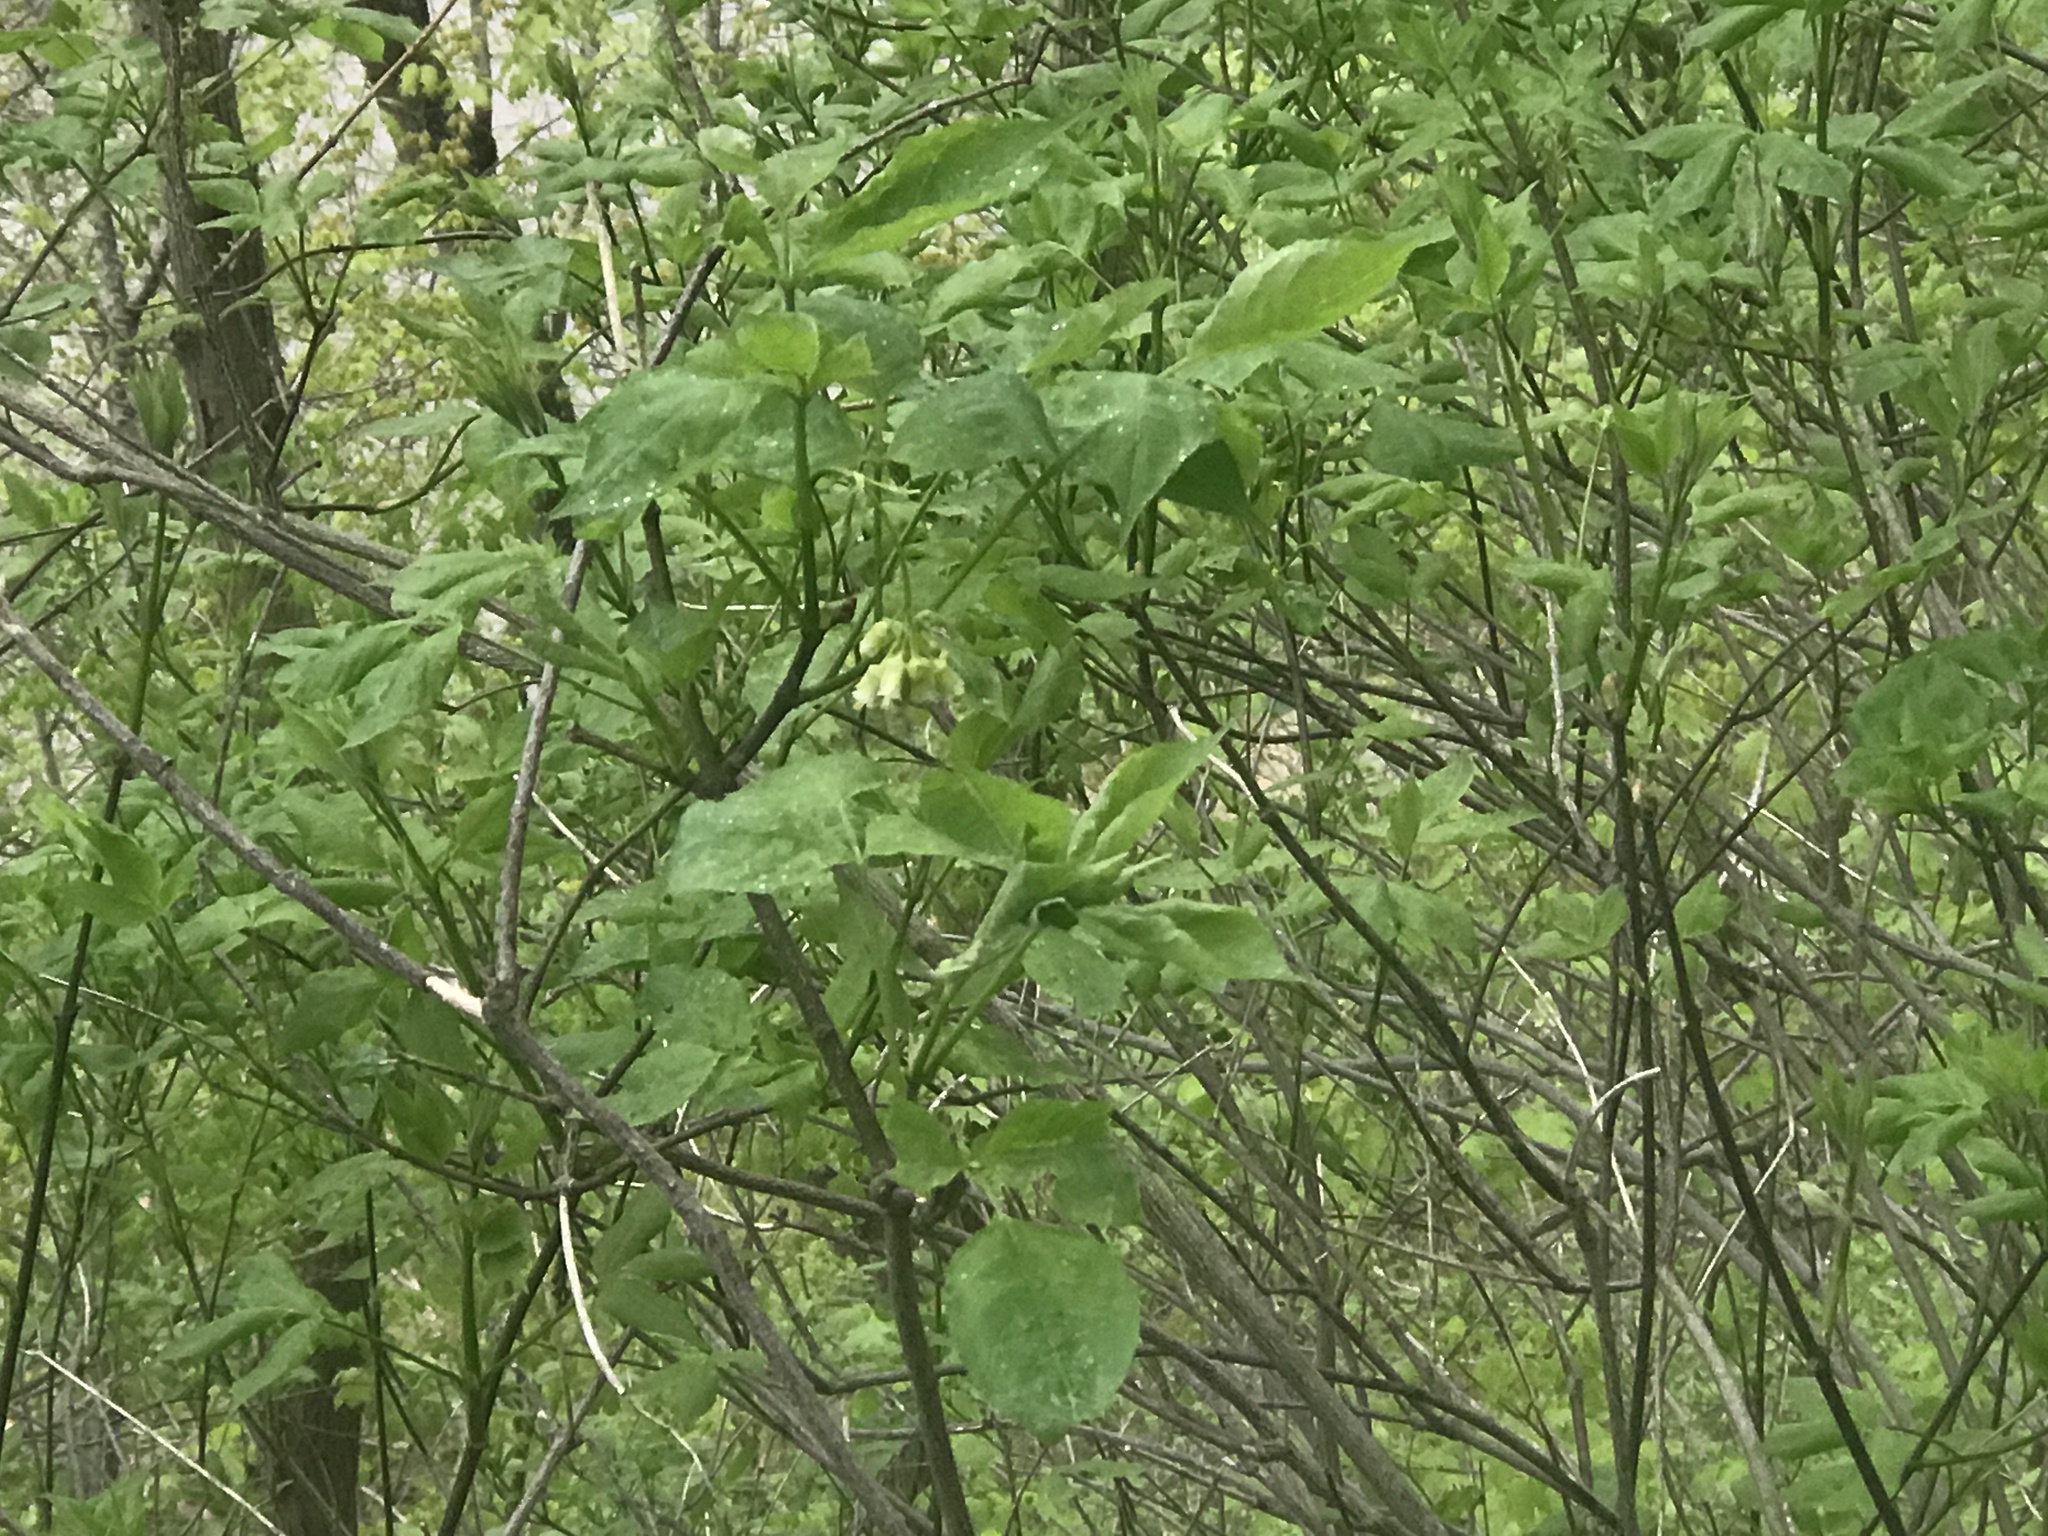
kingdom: Plantae
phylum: Tracheophyta
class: Magnoliopsida
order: Crossosomatales
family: Staphyleaceae
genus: Staphylea
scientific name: Staphylea trifolia
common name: American bladdernut
